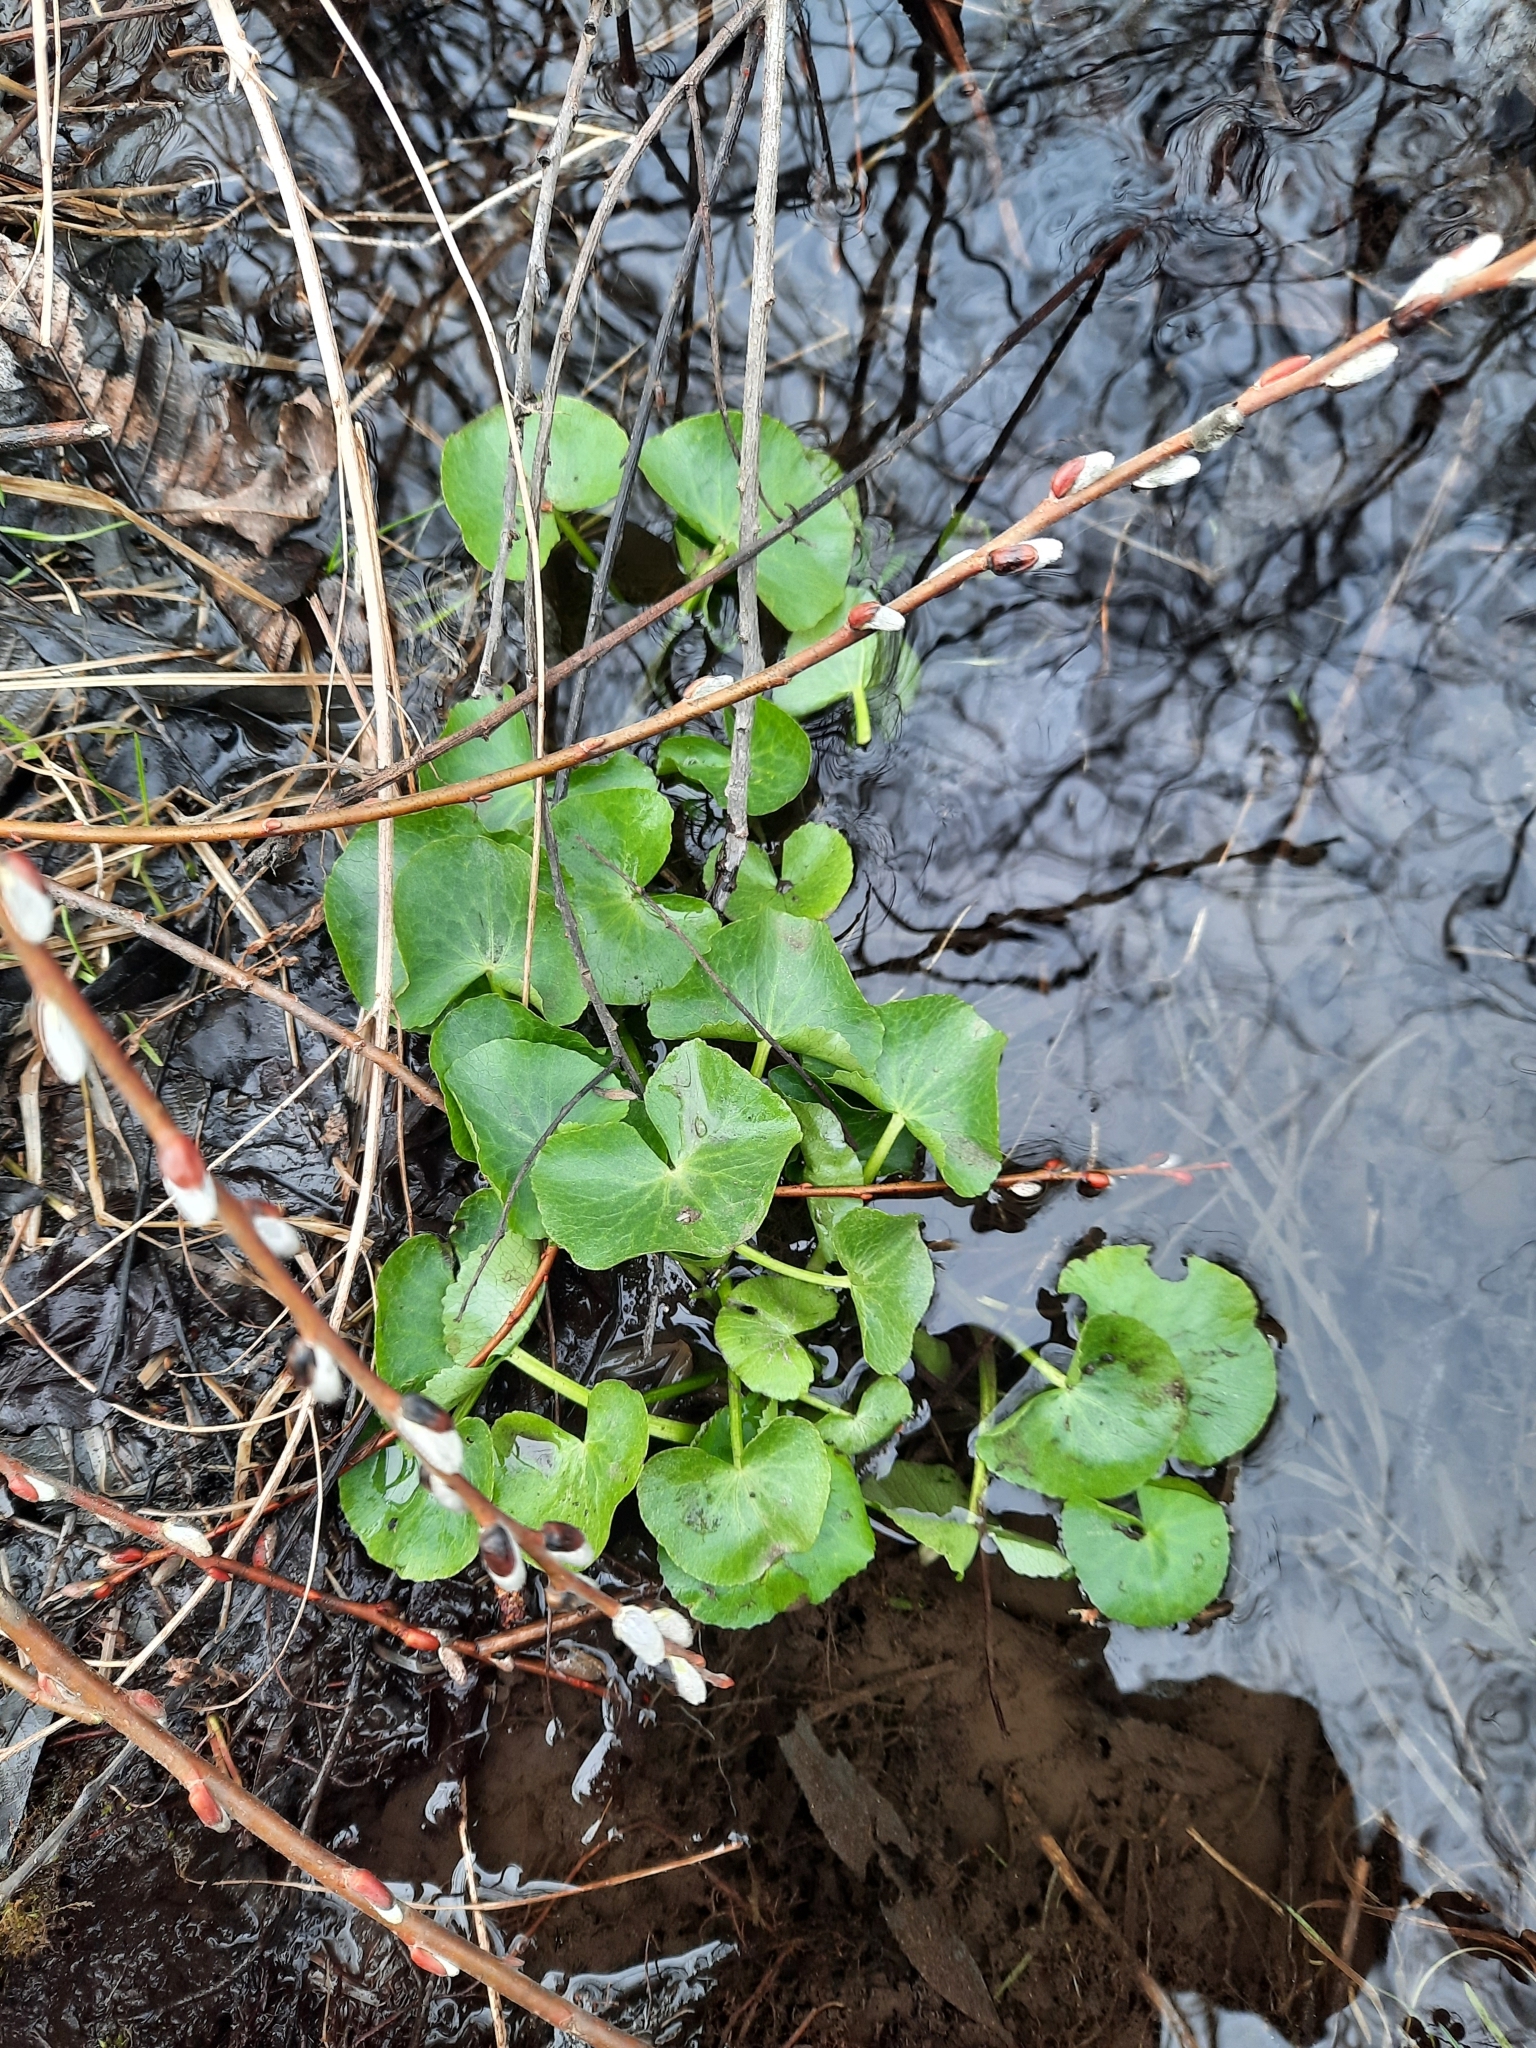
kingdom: Plantae
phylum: Tracheophyta
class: Magnoliopsida
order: Ranunculales
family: Ranunculaceae
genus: Caltha
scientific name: Caltha palustris
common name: Marsh marigold
